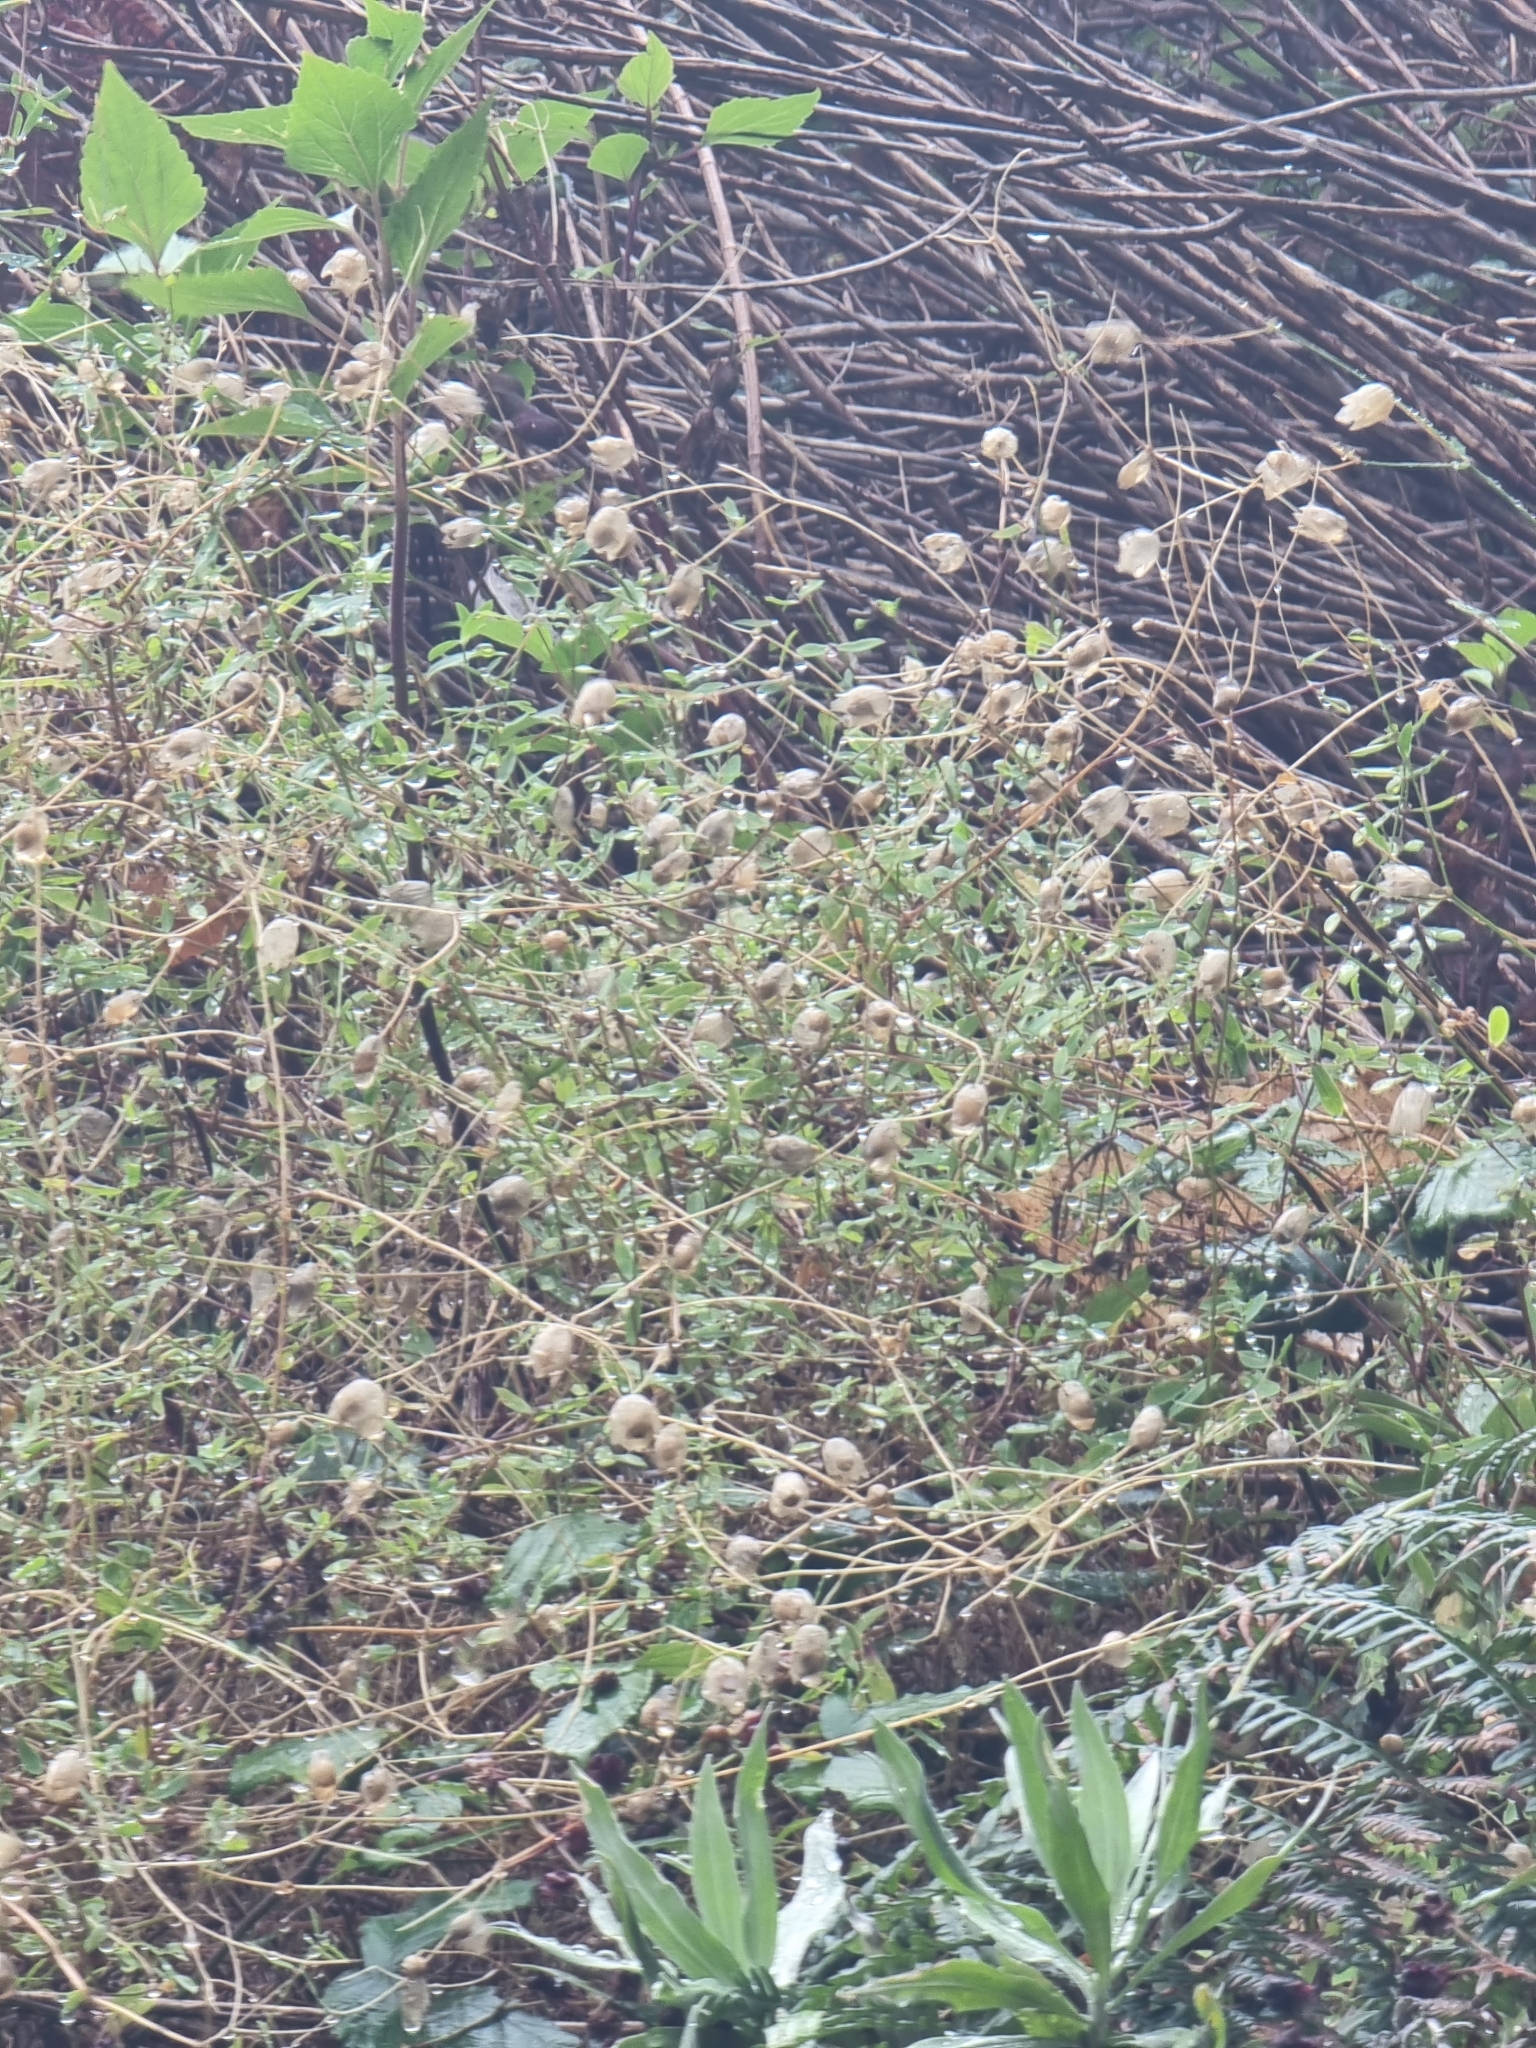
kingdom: Plantae
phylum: Tracheophyta
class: Magnoliopsida
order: Caryophyllales
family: Caryophyllaceae
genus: Silene
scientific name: Silene vulgaris
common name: Bladder campion
